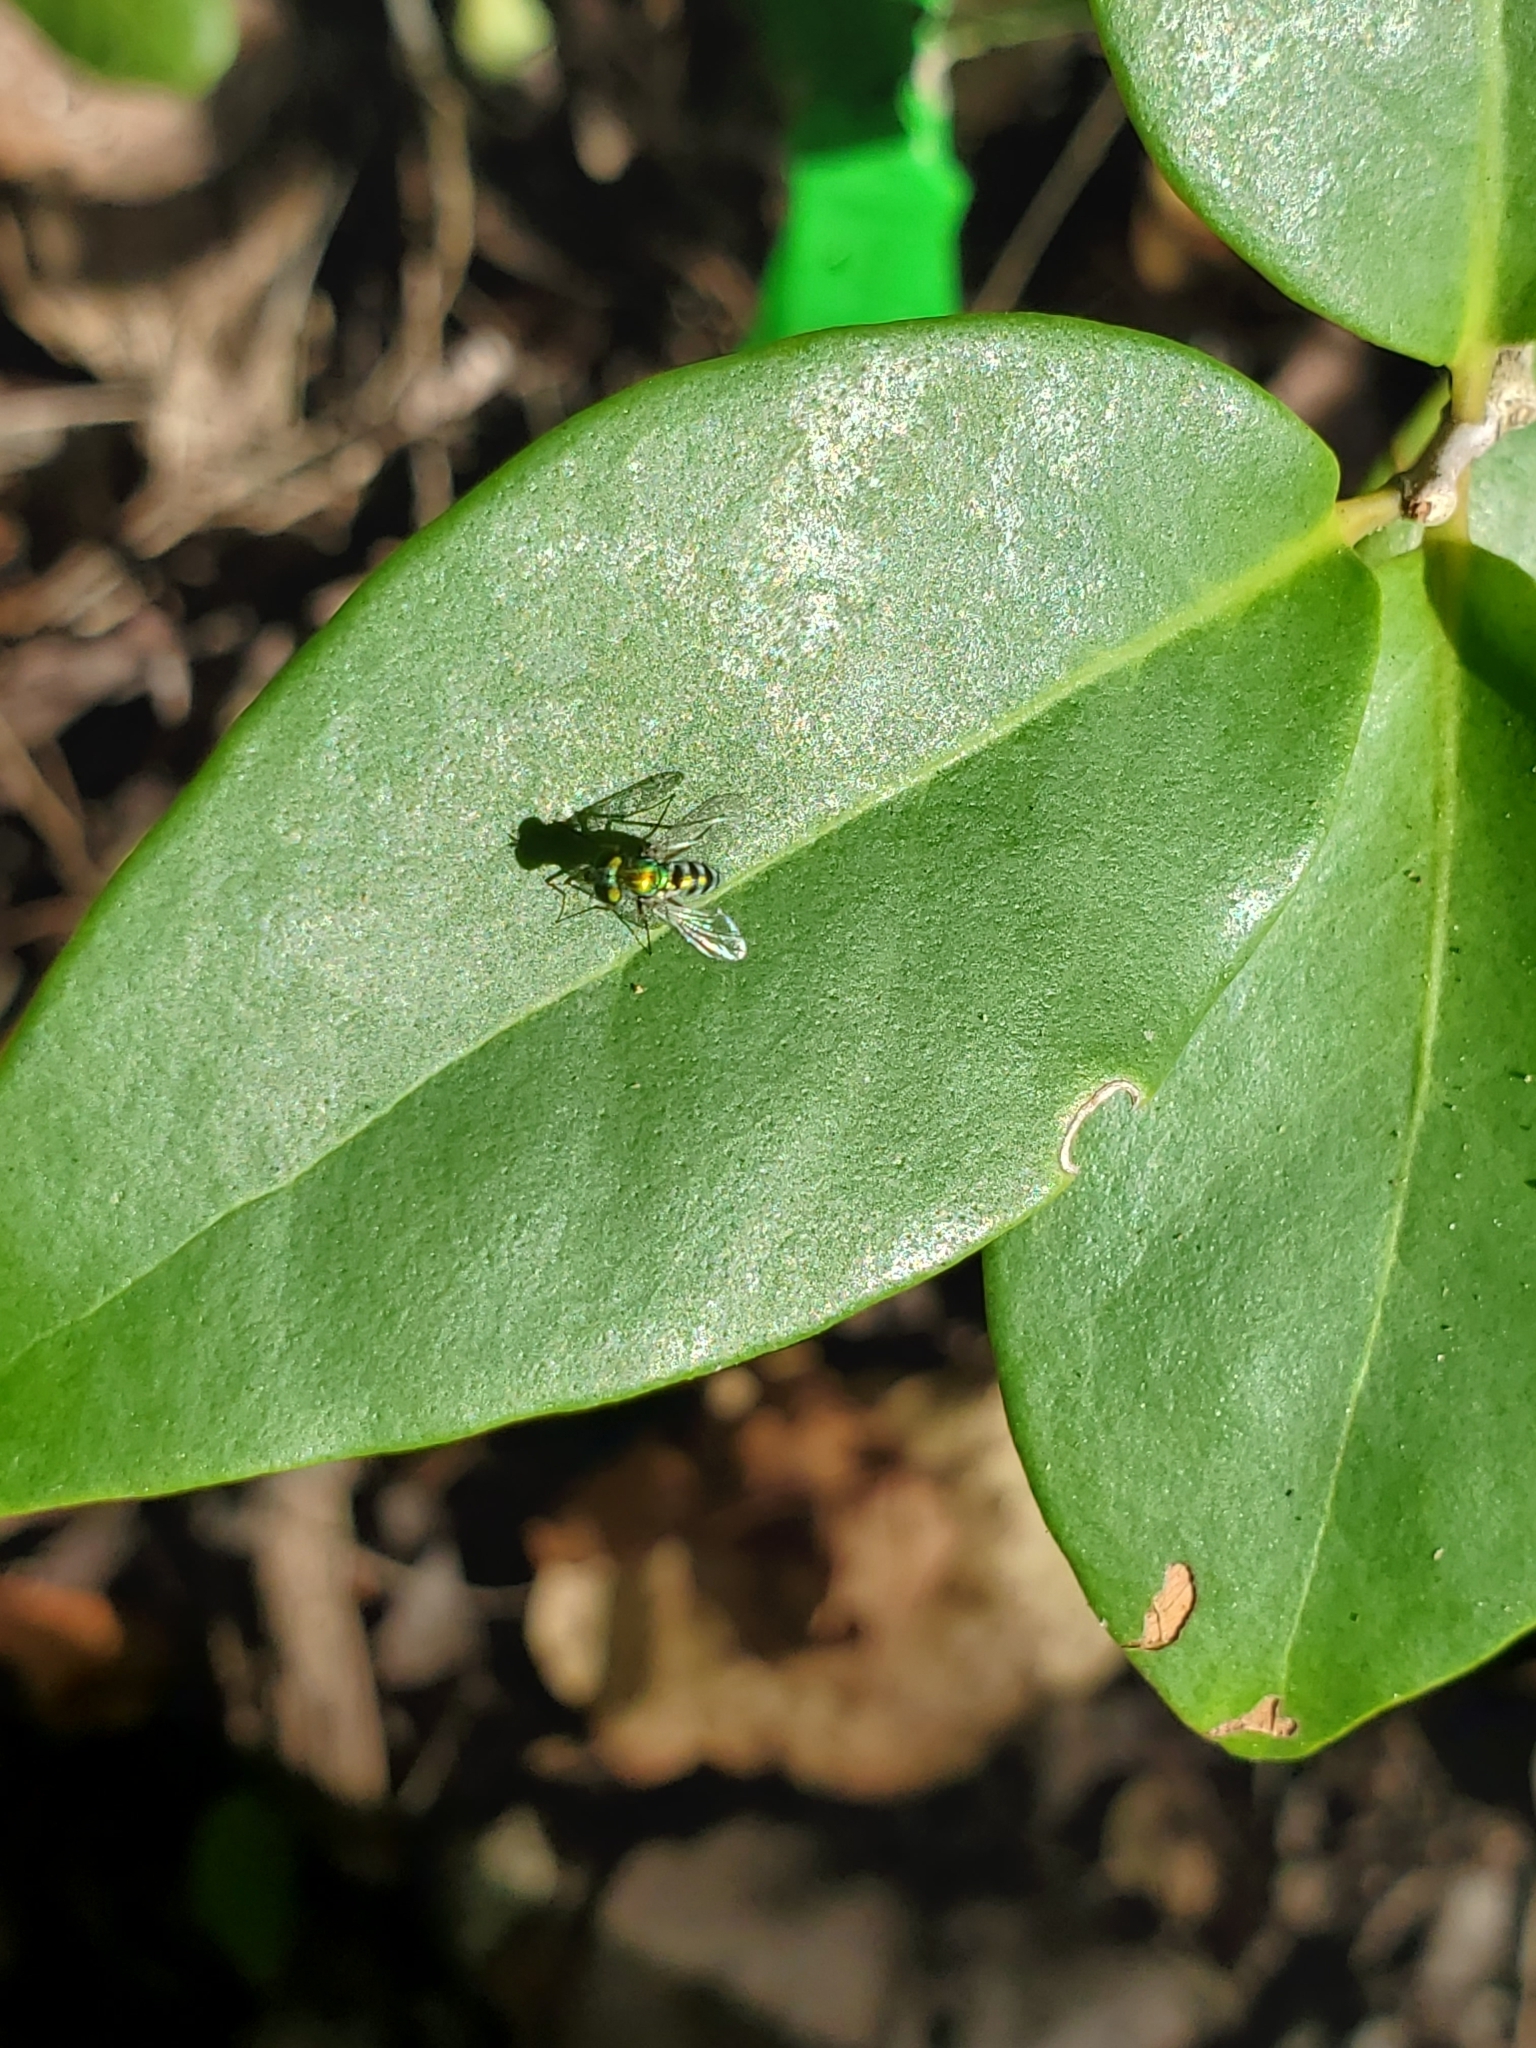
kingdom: Animalia
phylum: Arthropoda
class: Insecta
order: Diptera
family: Dolichopodidae
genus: Condylostylus
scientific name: Condylostylus pruinosus
